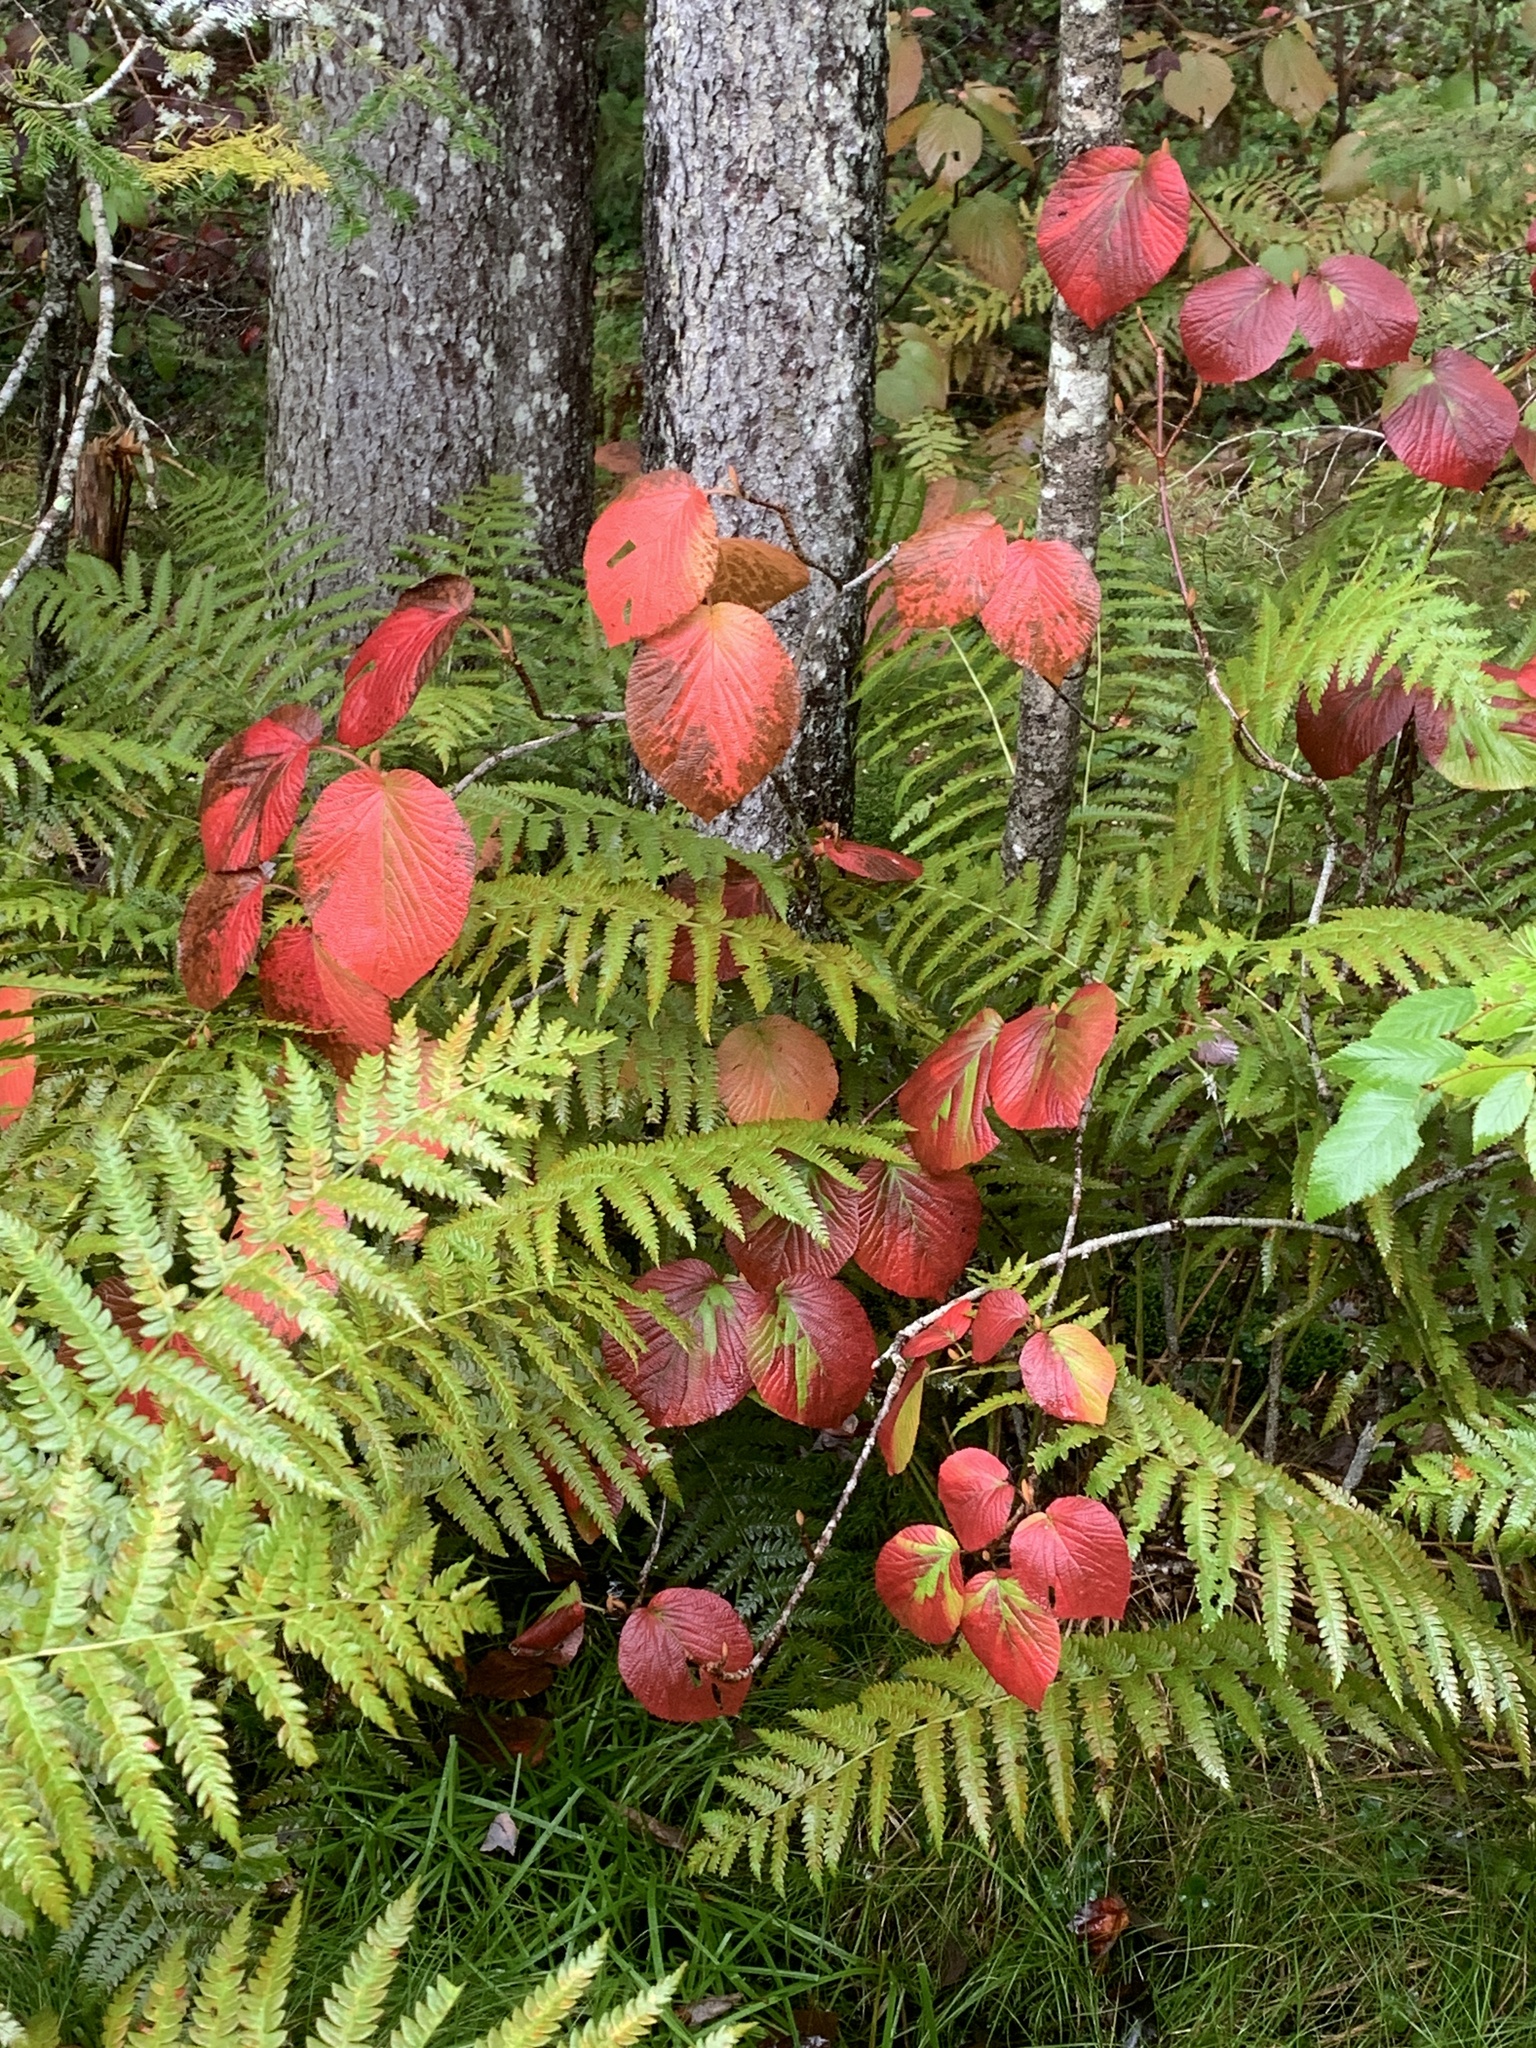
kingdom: Plantae
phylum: Tracheophyta
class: Magnoliopsida
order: Dipsacales
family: Viburnaceae
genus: Viburnum
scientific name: Viburnum lantanoides
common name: Hobblebush
